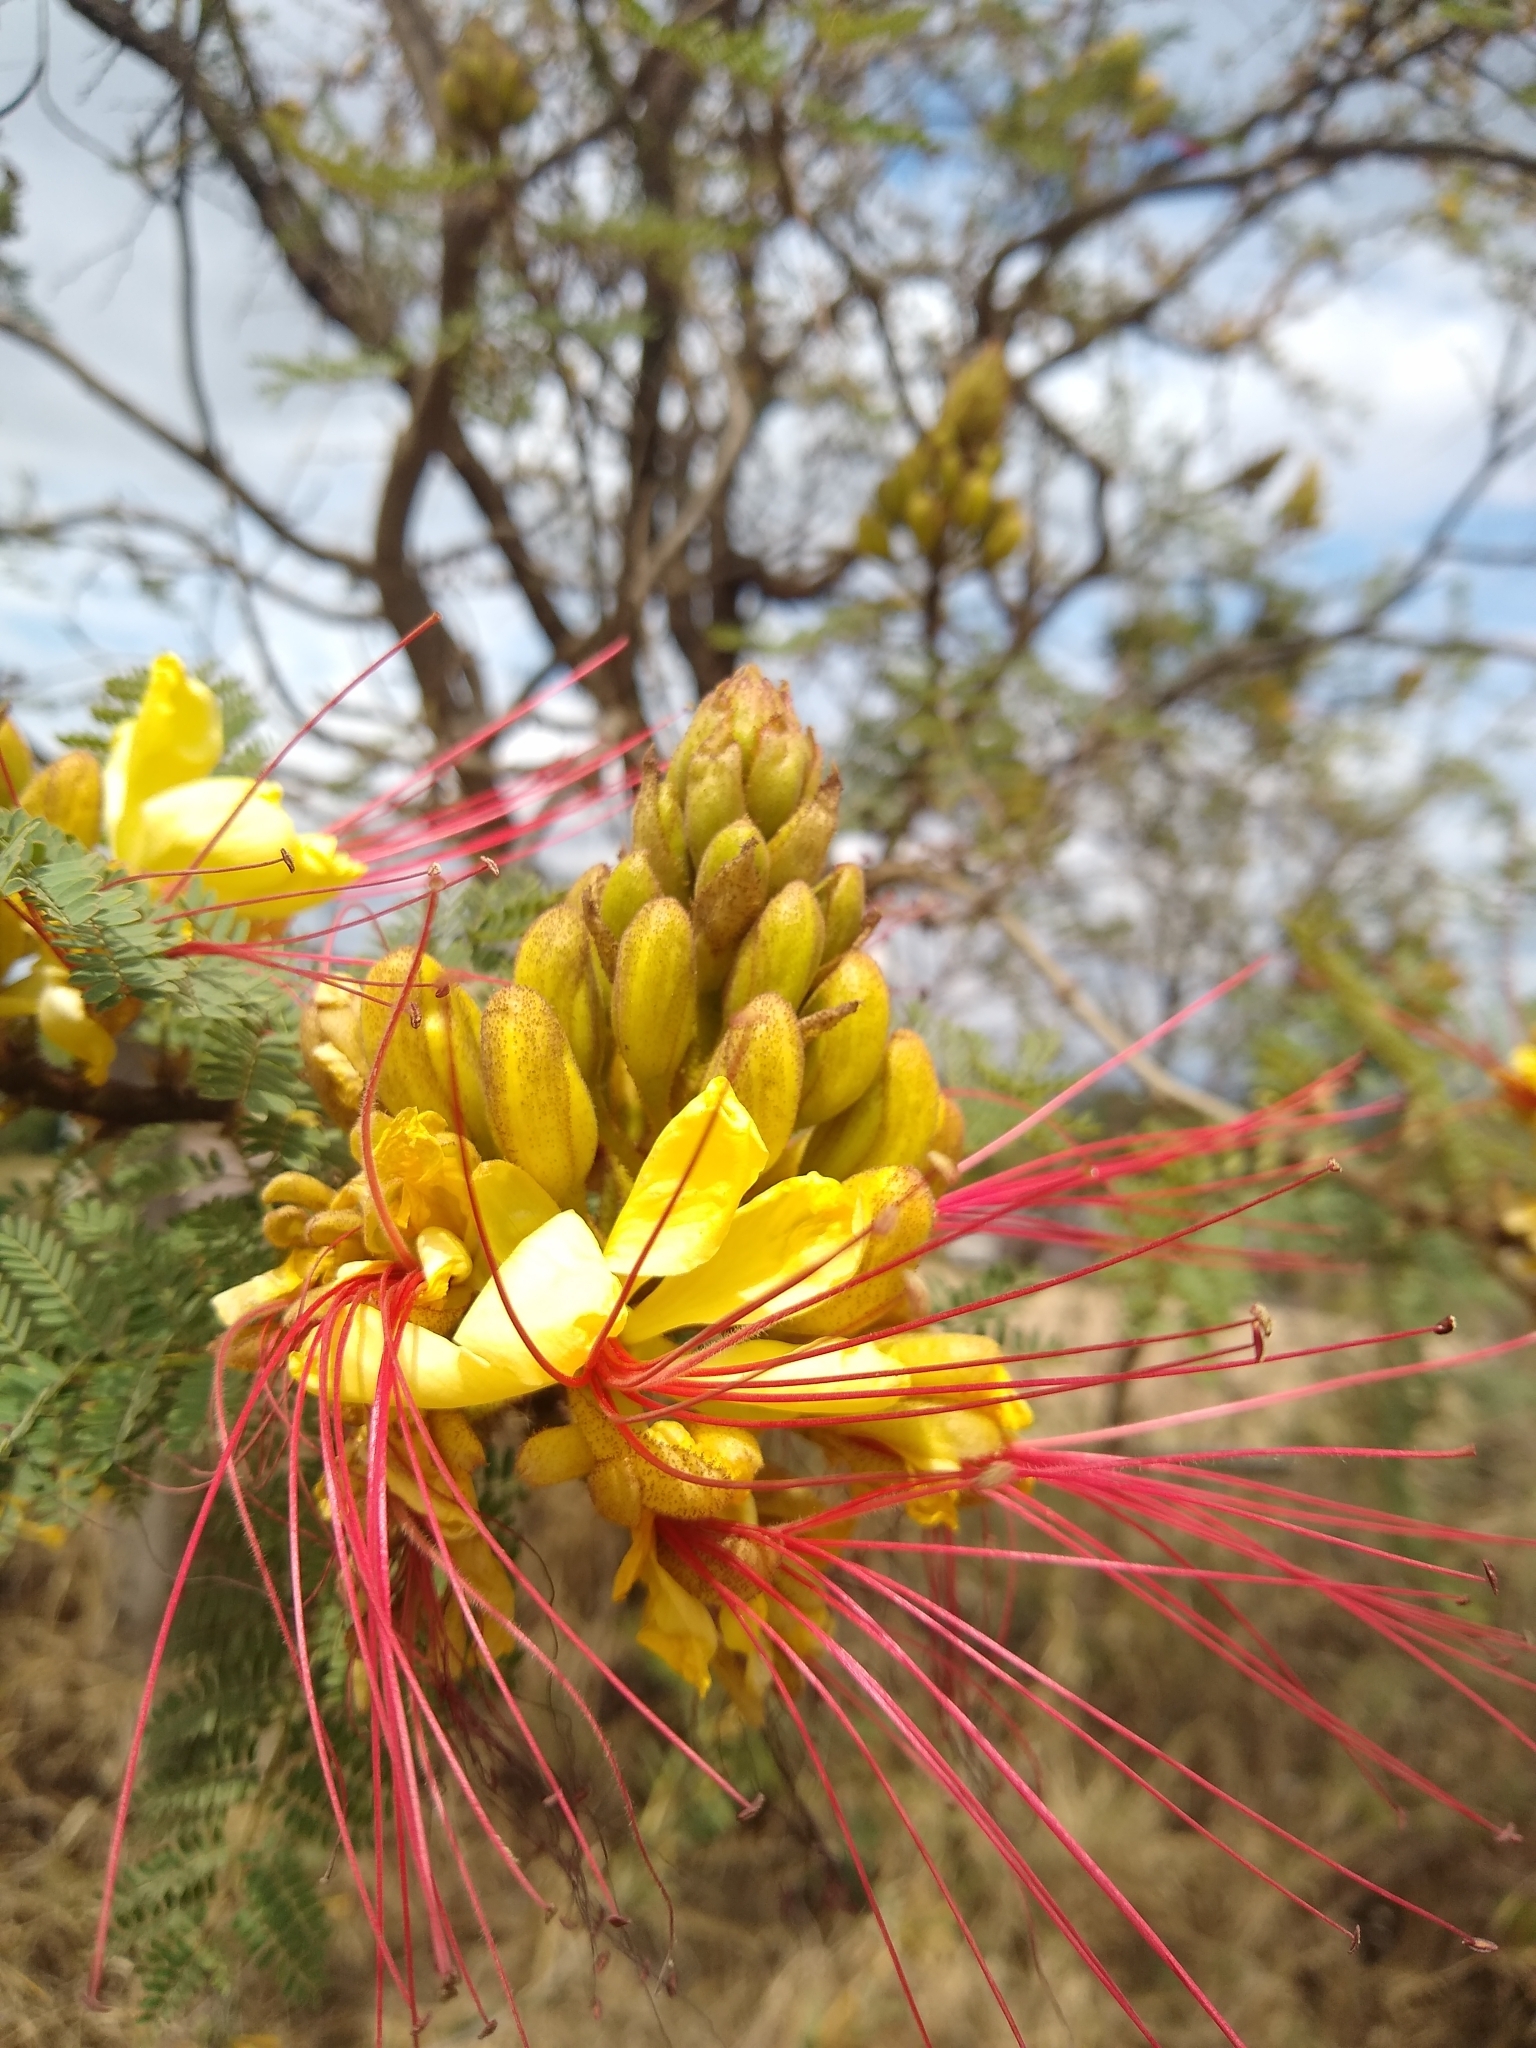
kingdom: Plantae
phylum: Tracheophyta
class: Magnoliopsida
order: Fabales
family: Fabaceae
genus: Erythrostemon
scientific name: Erythrostemon gilliesii
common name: Bird-of-paradise shrub
